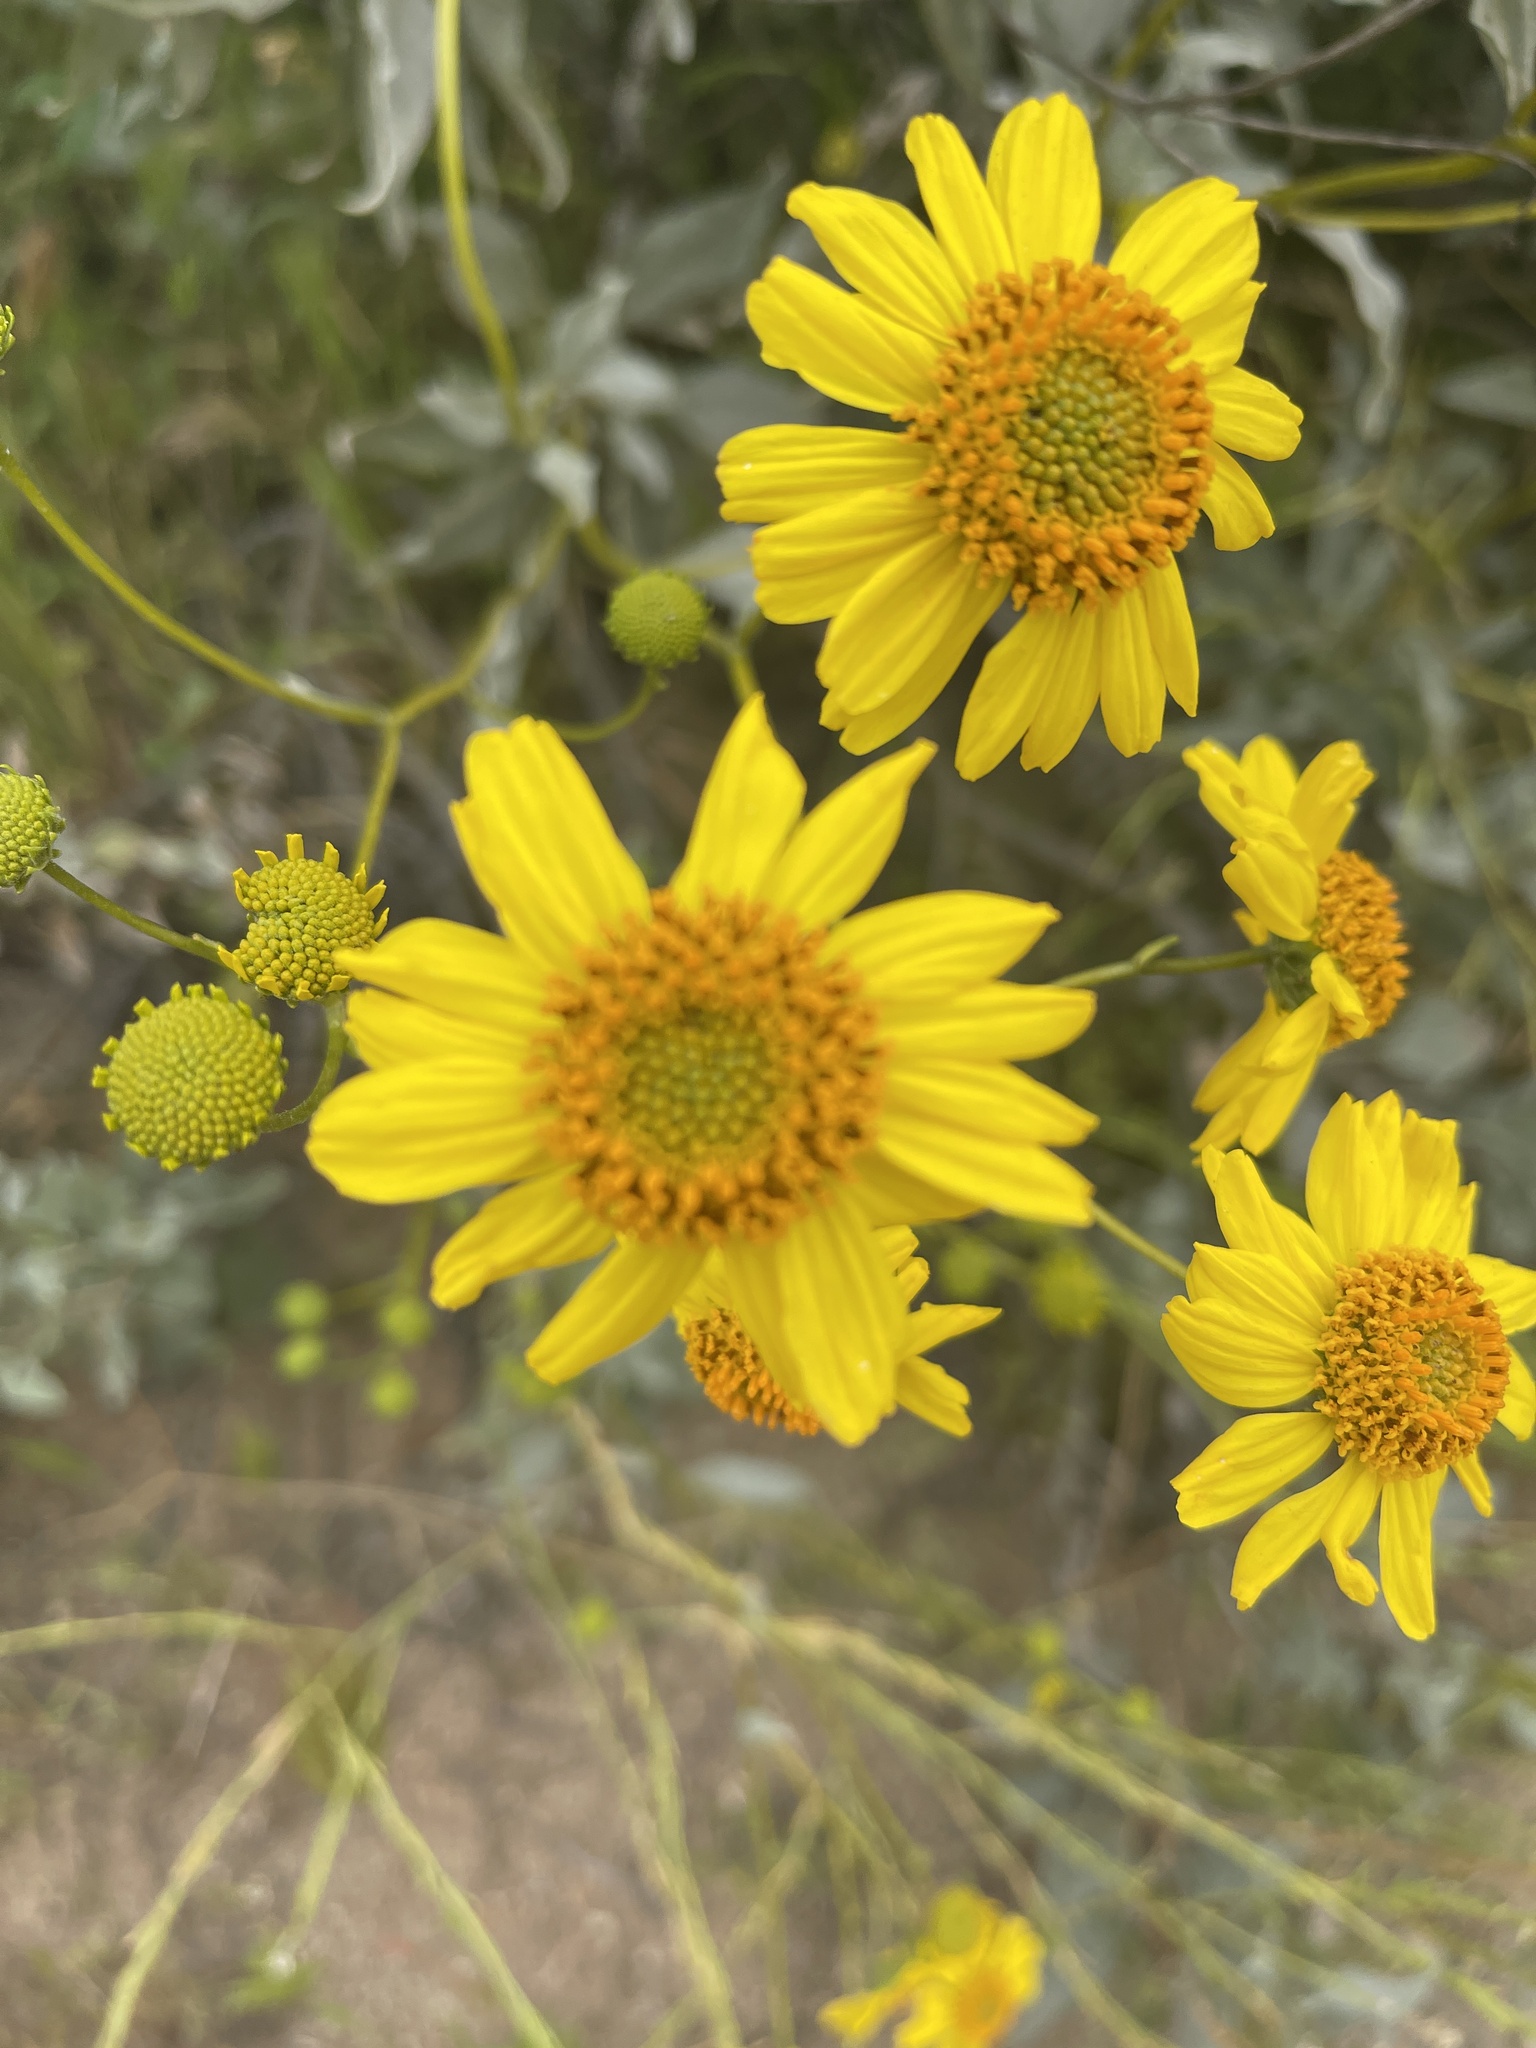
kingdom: Plantae
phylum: Tracheophyta
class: Magnoliopsida
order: Asterales
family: Asteraceae
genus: Encelia
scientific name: Encelia farinosa
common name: Brittlebush
